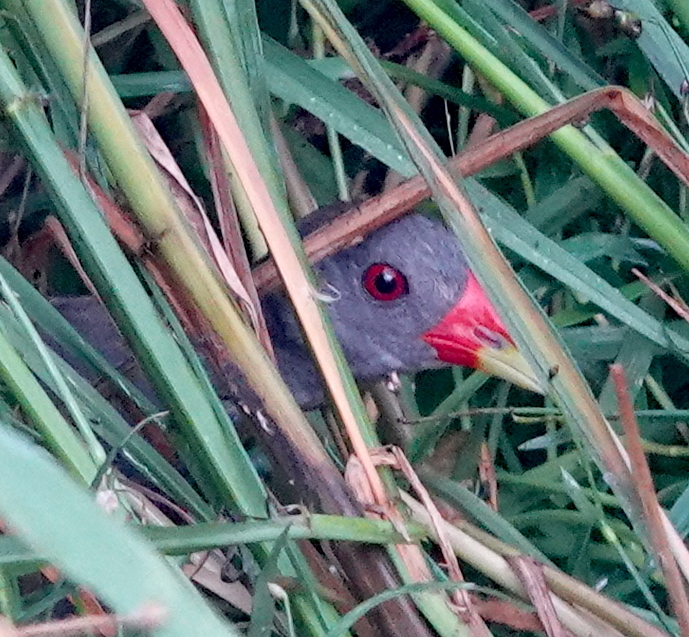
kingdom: Animalia
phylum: Chordata
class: Aves
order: Gruiformes
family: Rallidae
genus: Neocrex
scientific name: Neocrex erythrops
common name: Paint-billed crake
